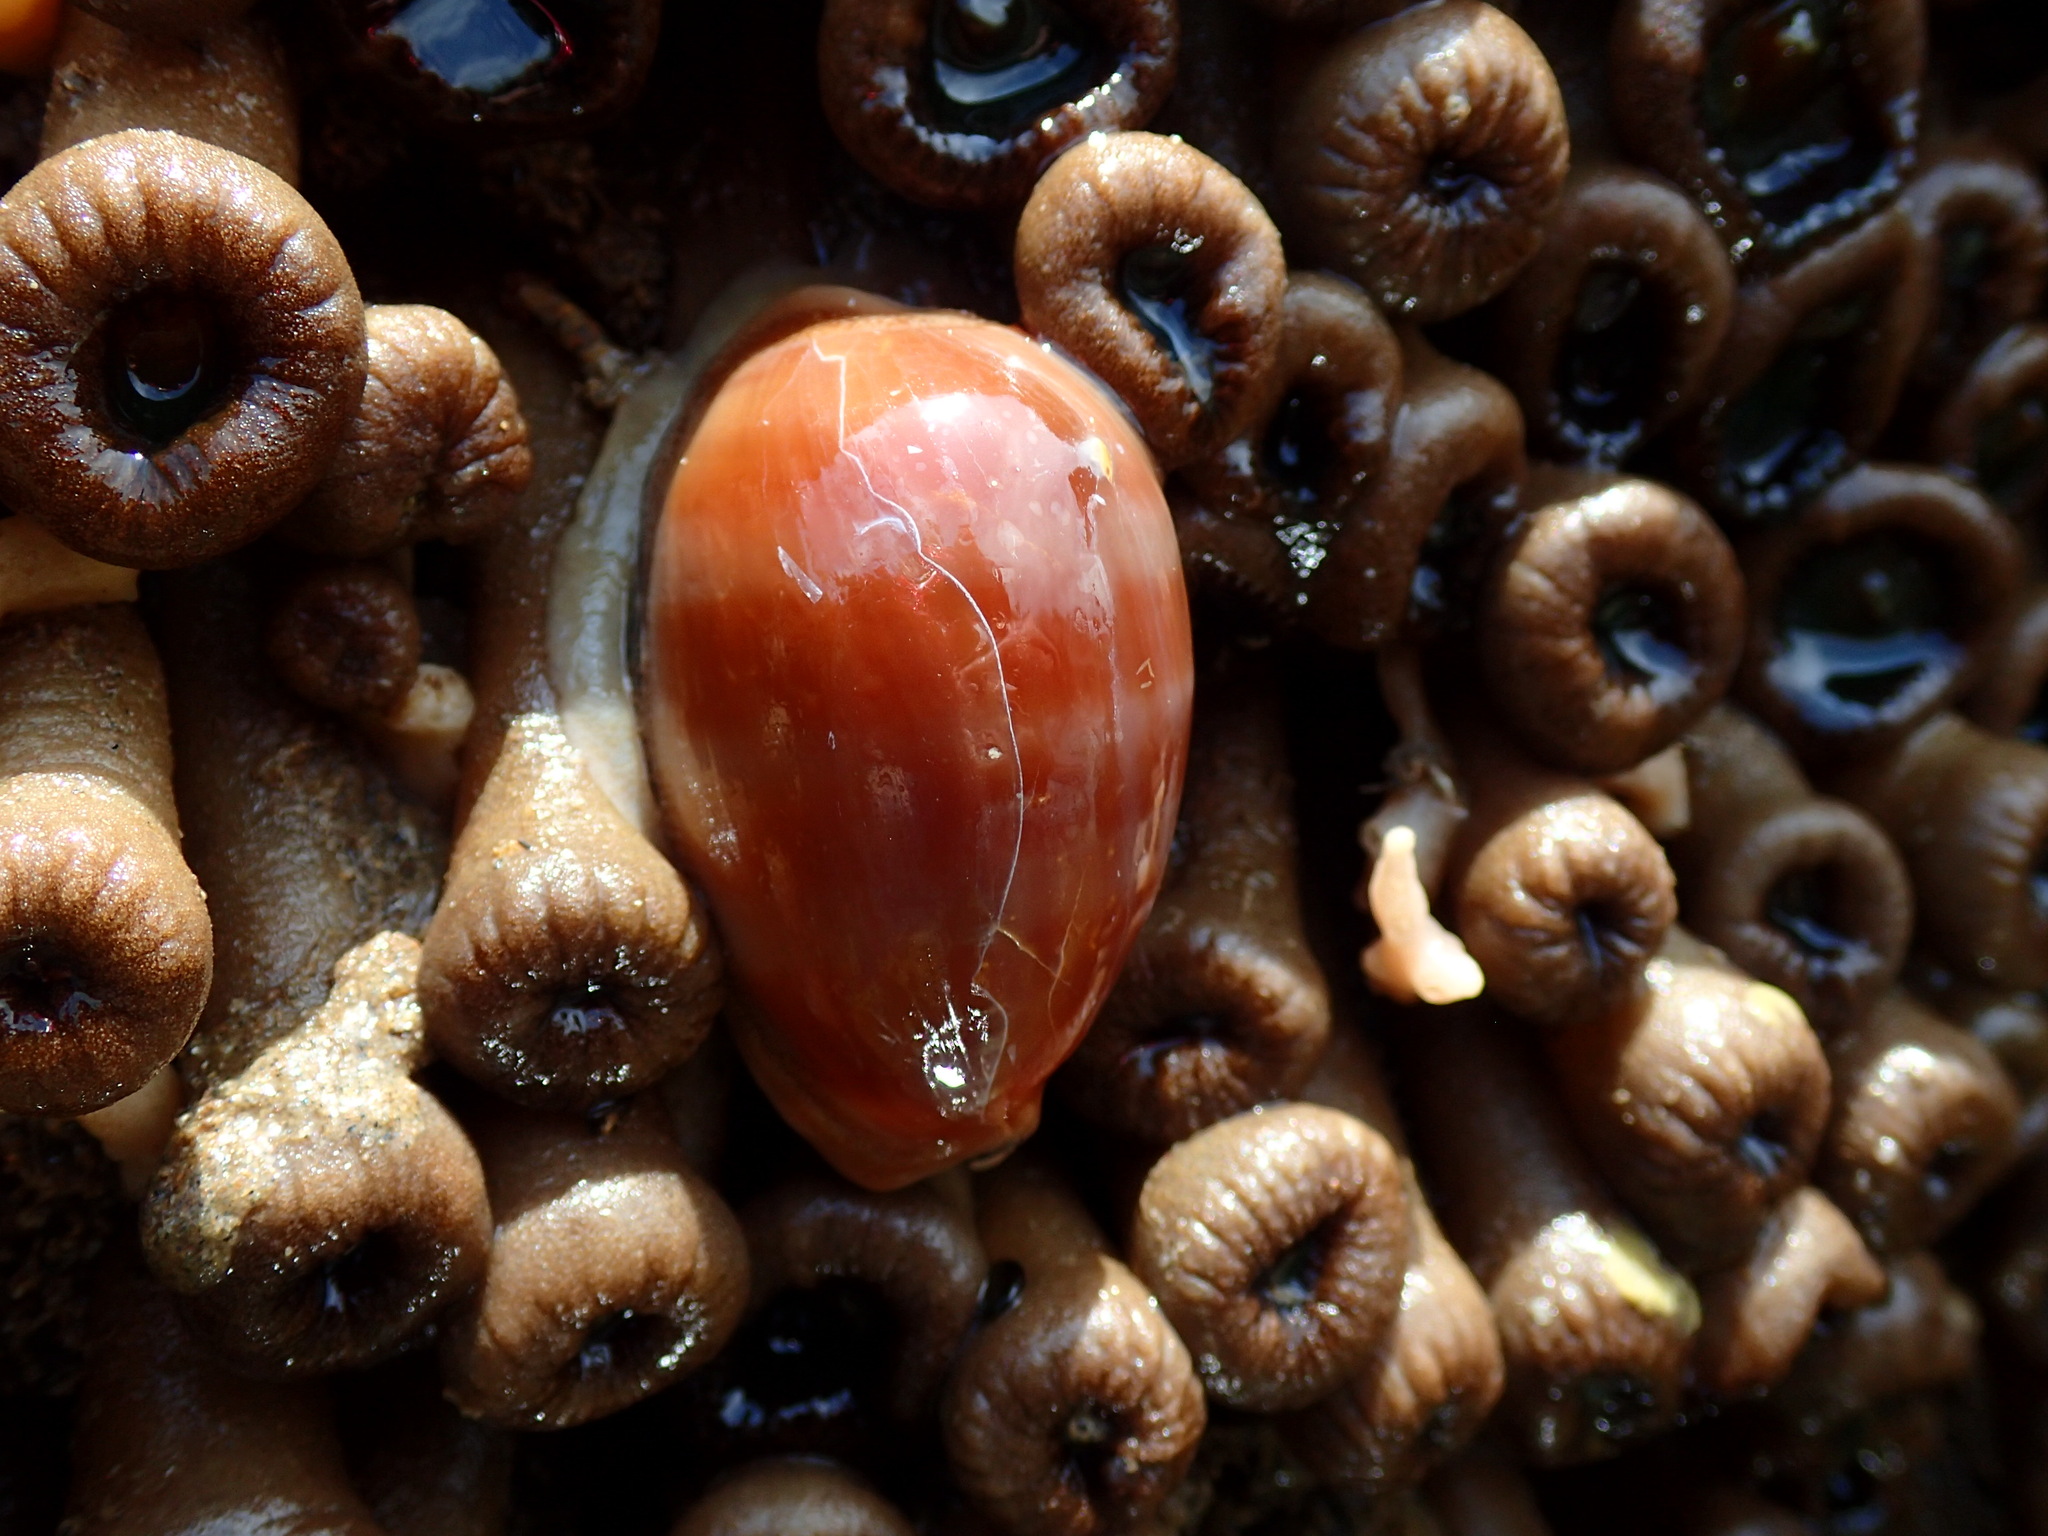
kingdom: Animalia
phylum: Mollusca
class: Gastropoda
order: Littorinimorpha
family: Cypraeidae
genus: Lyncina
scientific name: Lyncina carneola
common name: Purple-mouthed cowry
